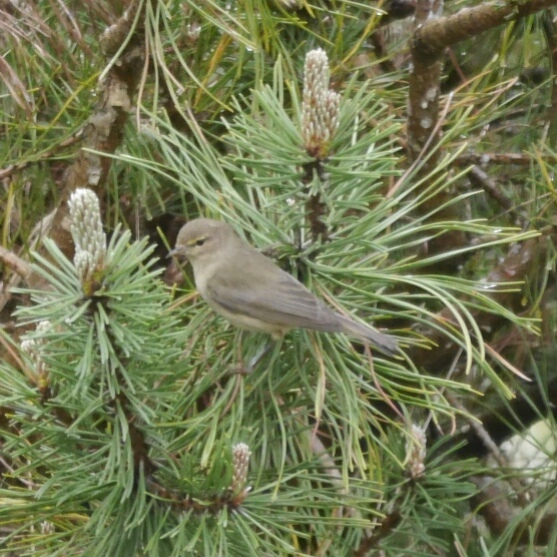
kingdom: Animalia
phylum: Chordata
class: Aves
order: Passeriformes
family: Phylloscopidae
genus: Phylloscopus
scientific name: Phylloscopus collybita
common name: Common chiffchaff
